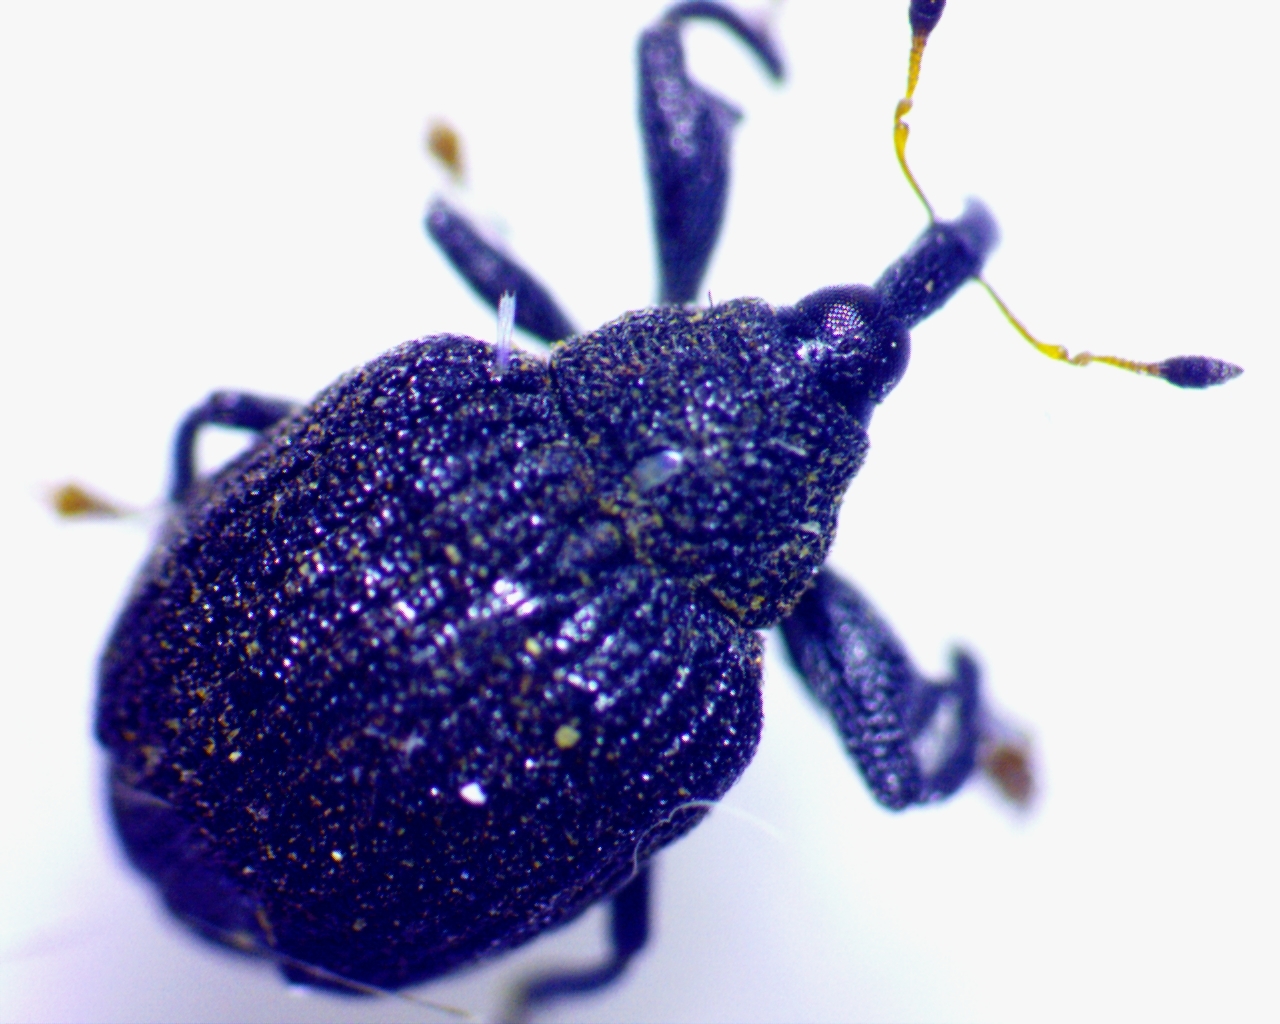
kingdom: Animalia
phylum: Arthropoda
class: Insecta
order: Coleoptera
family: Curculionidae
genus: Odontopus
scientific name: Odontopus calceatus
